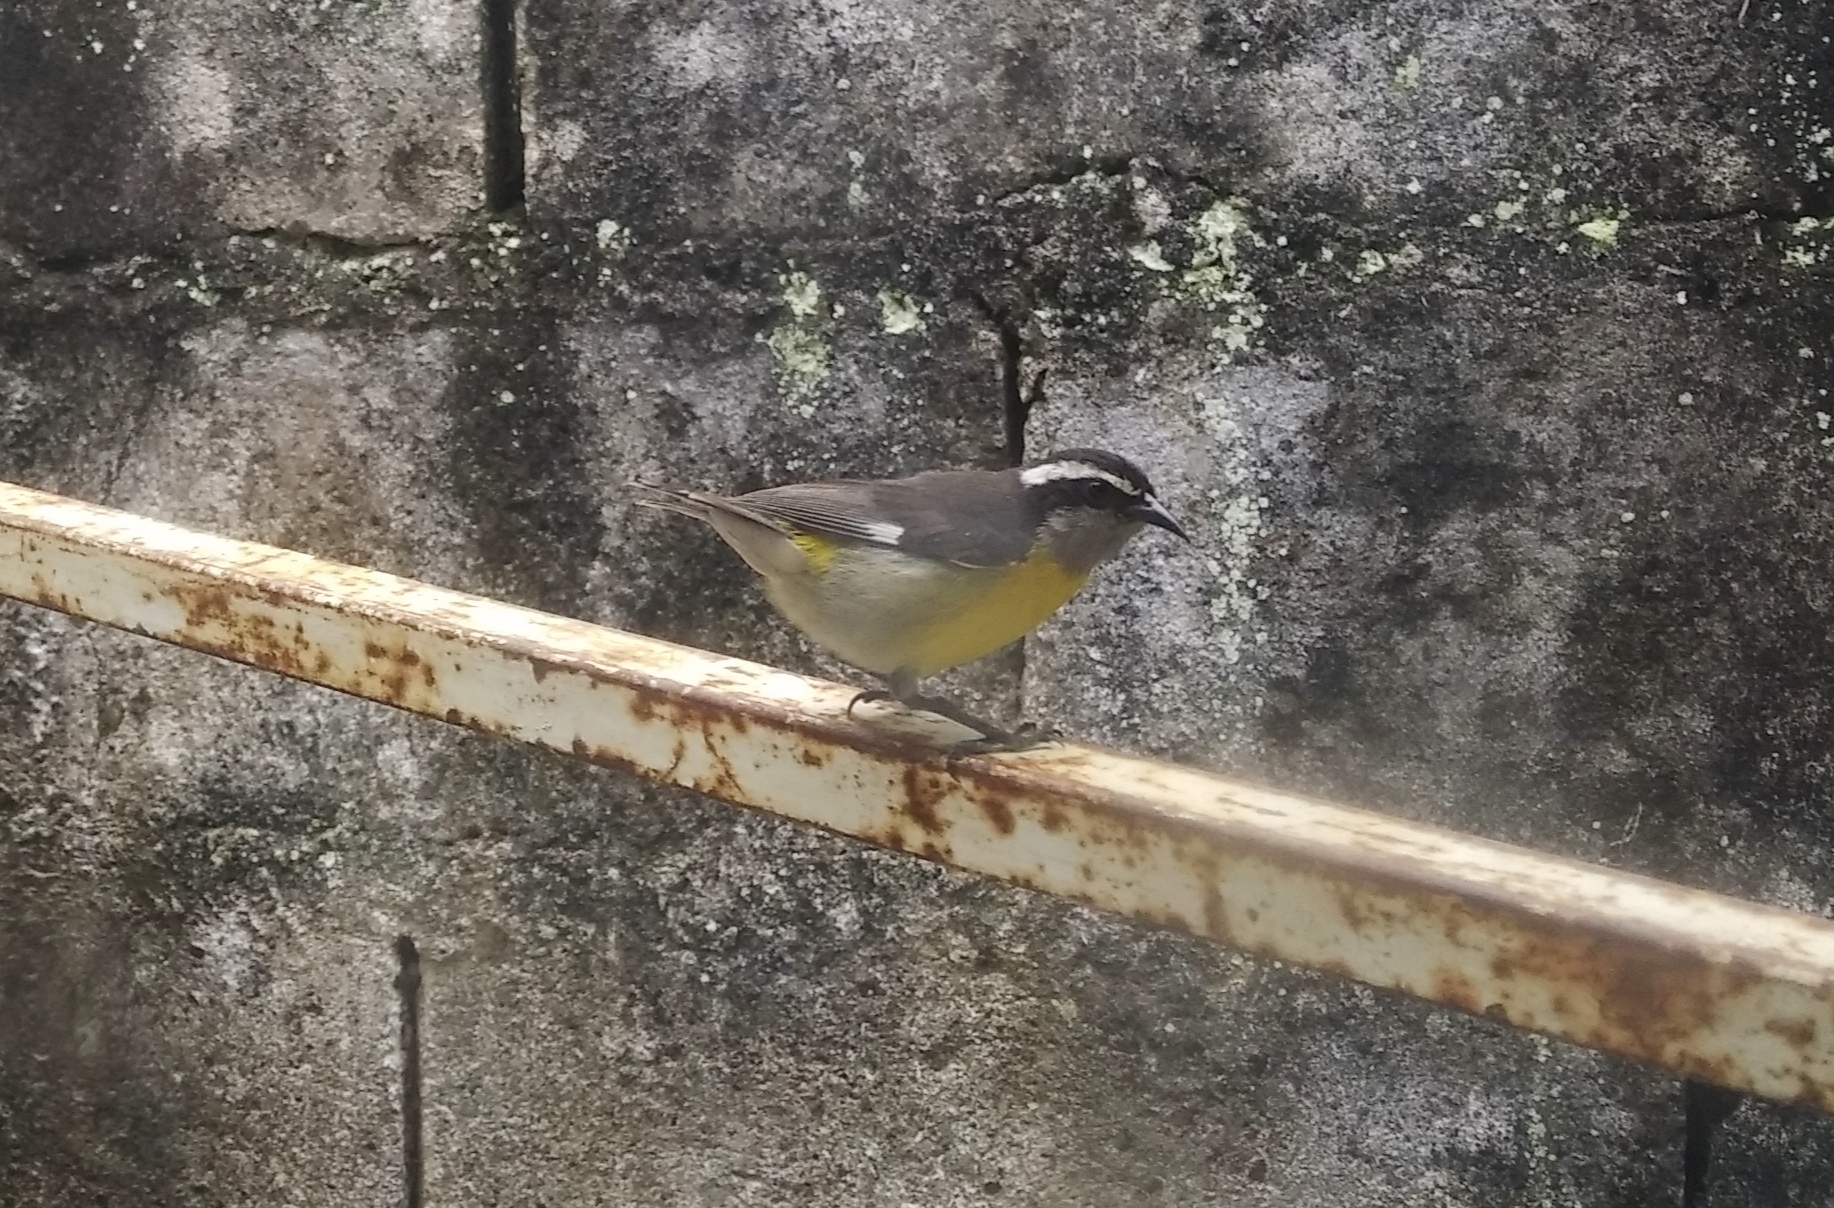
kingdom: Animalia
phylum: Chordata
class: Aves
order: Passeriformes
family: Thraupidae
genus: Coereba
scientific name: Coereba flaveola
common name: Bananaquit
